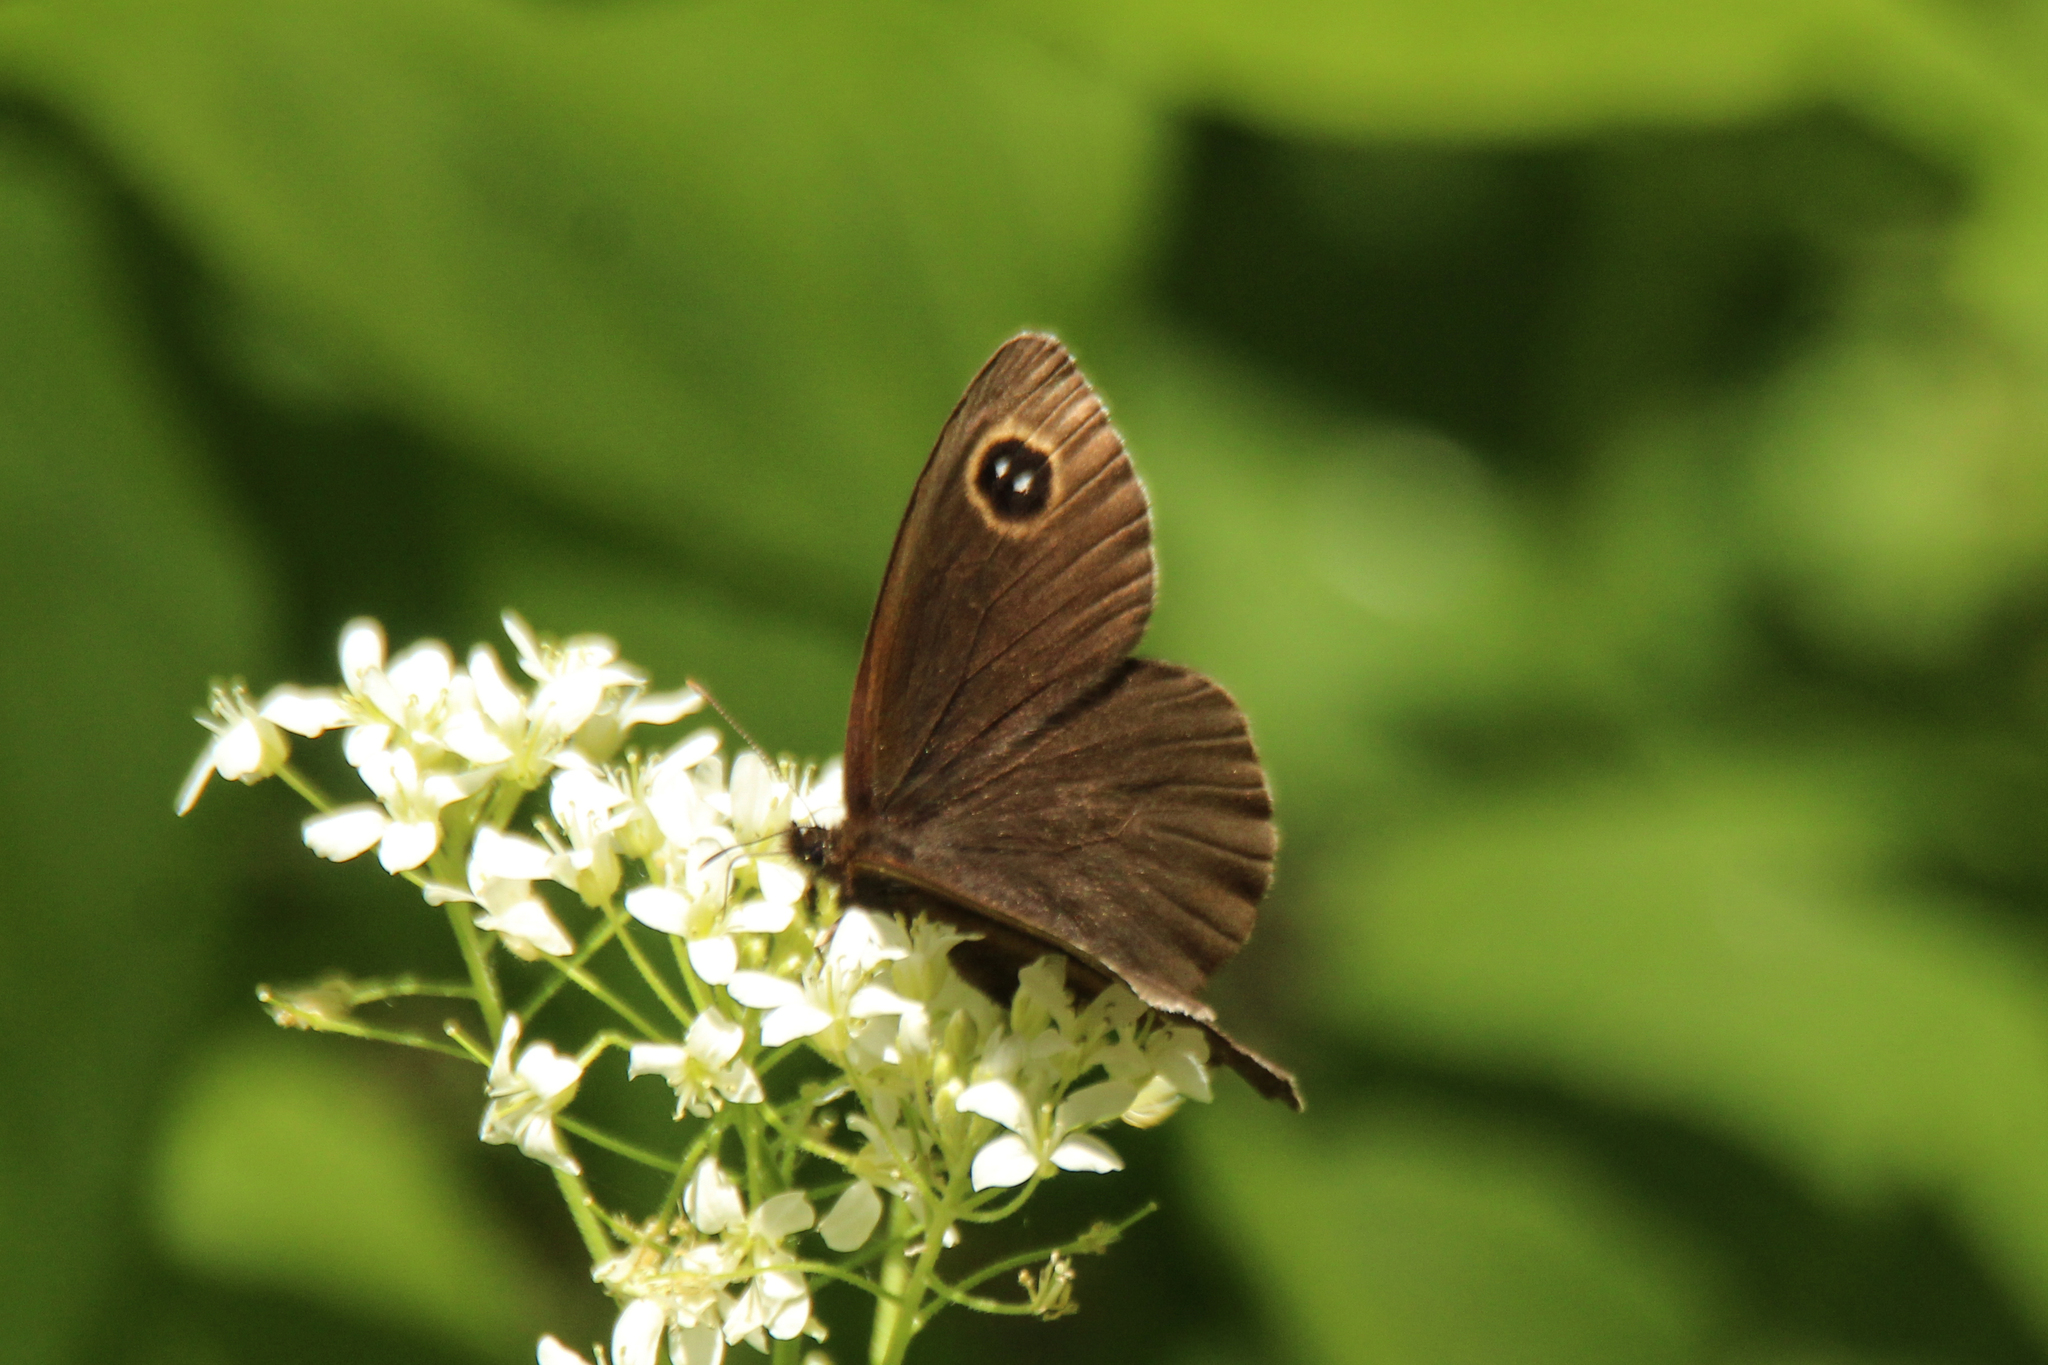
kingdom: Animalia
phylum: Arthropoda
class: Insecta
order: Lepidoptera
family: Nymphalidae
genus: Erebia
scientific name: Erebia tristis
